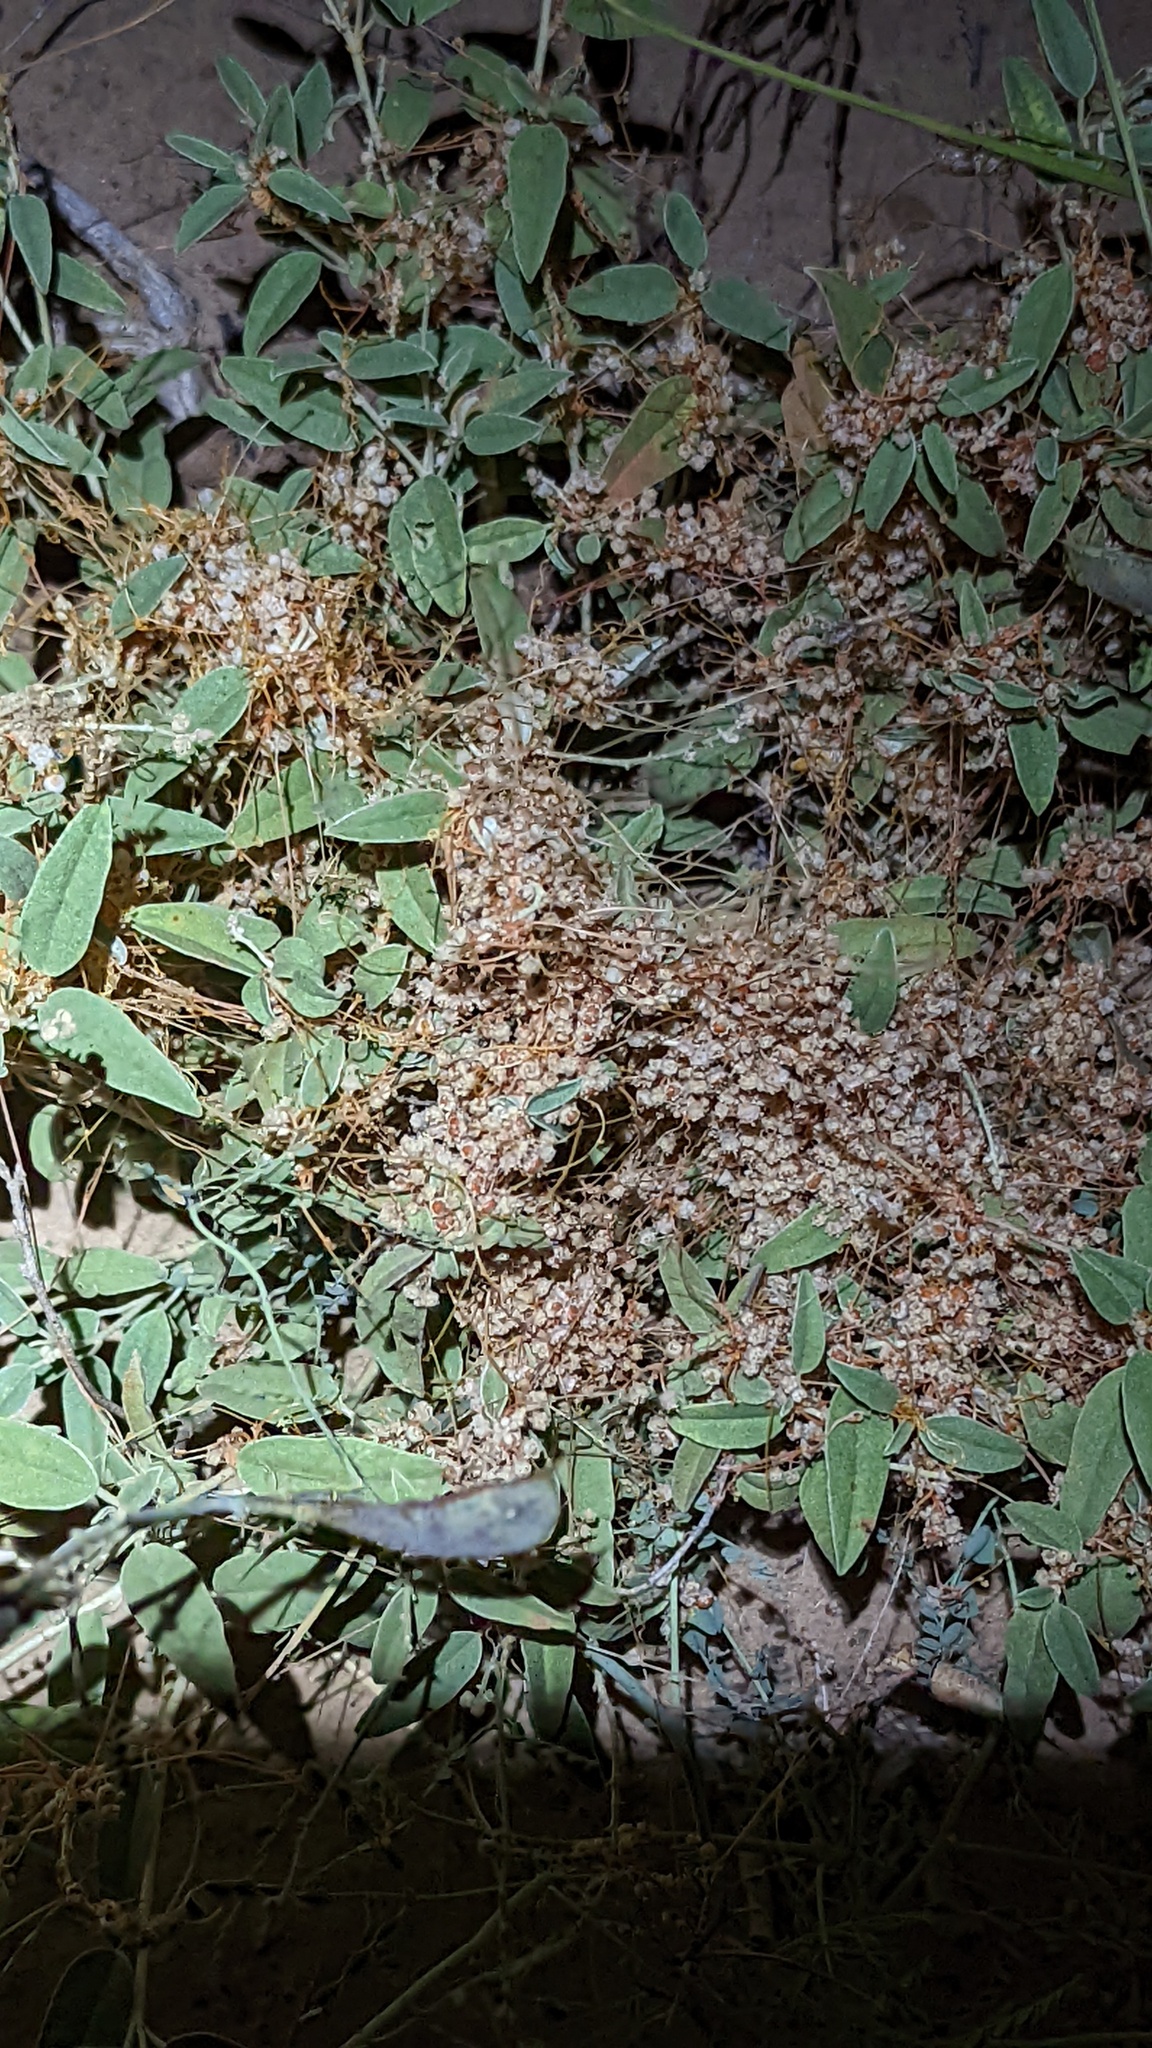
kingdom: Plantae
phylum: Tracheophyta
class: Magnoliopsida
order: Solanales
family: Convolvulaceae
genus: Cuscuta
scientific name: Cuscuta campestris
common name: Yellow dodder
